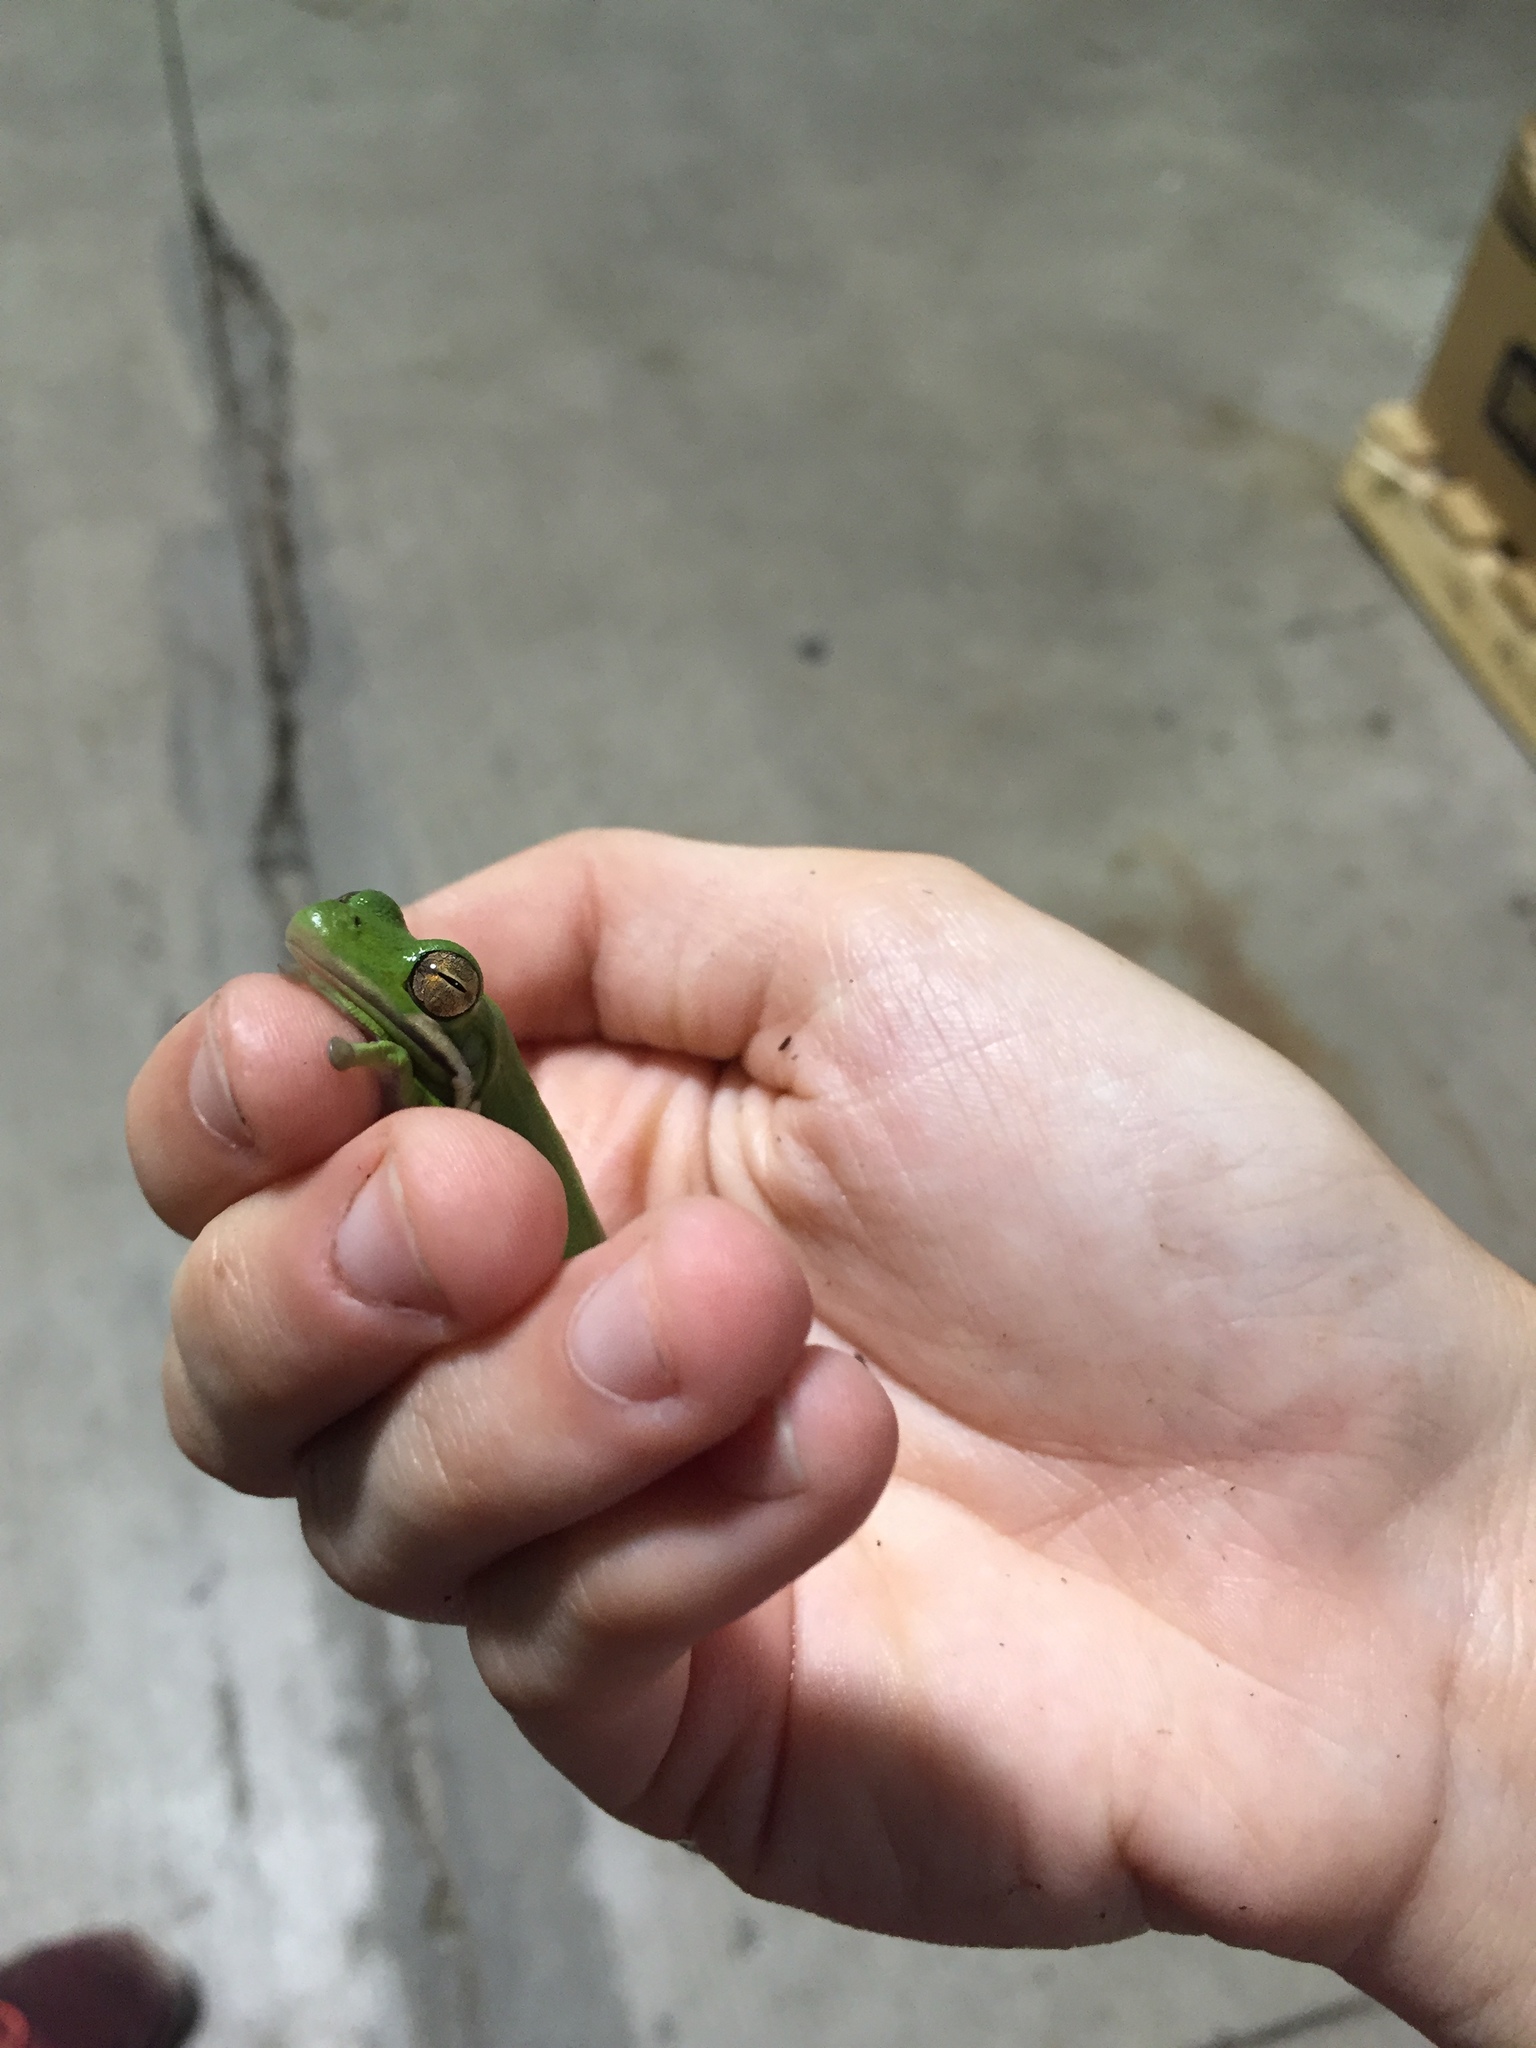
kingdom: Animalia
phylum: Chordata
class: Amphibia
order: Anura
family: Hylidae
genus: Dryophytes
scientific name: Dryophytes cinereus
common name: Green treefrog
